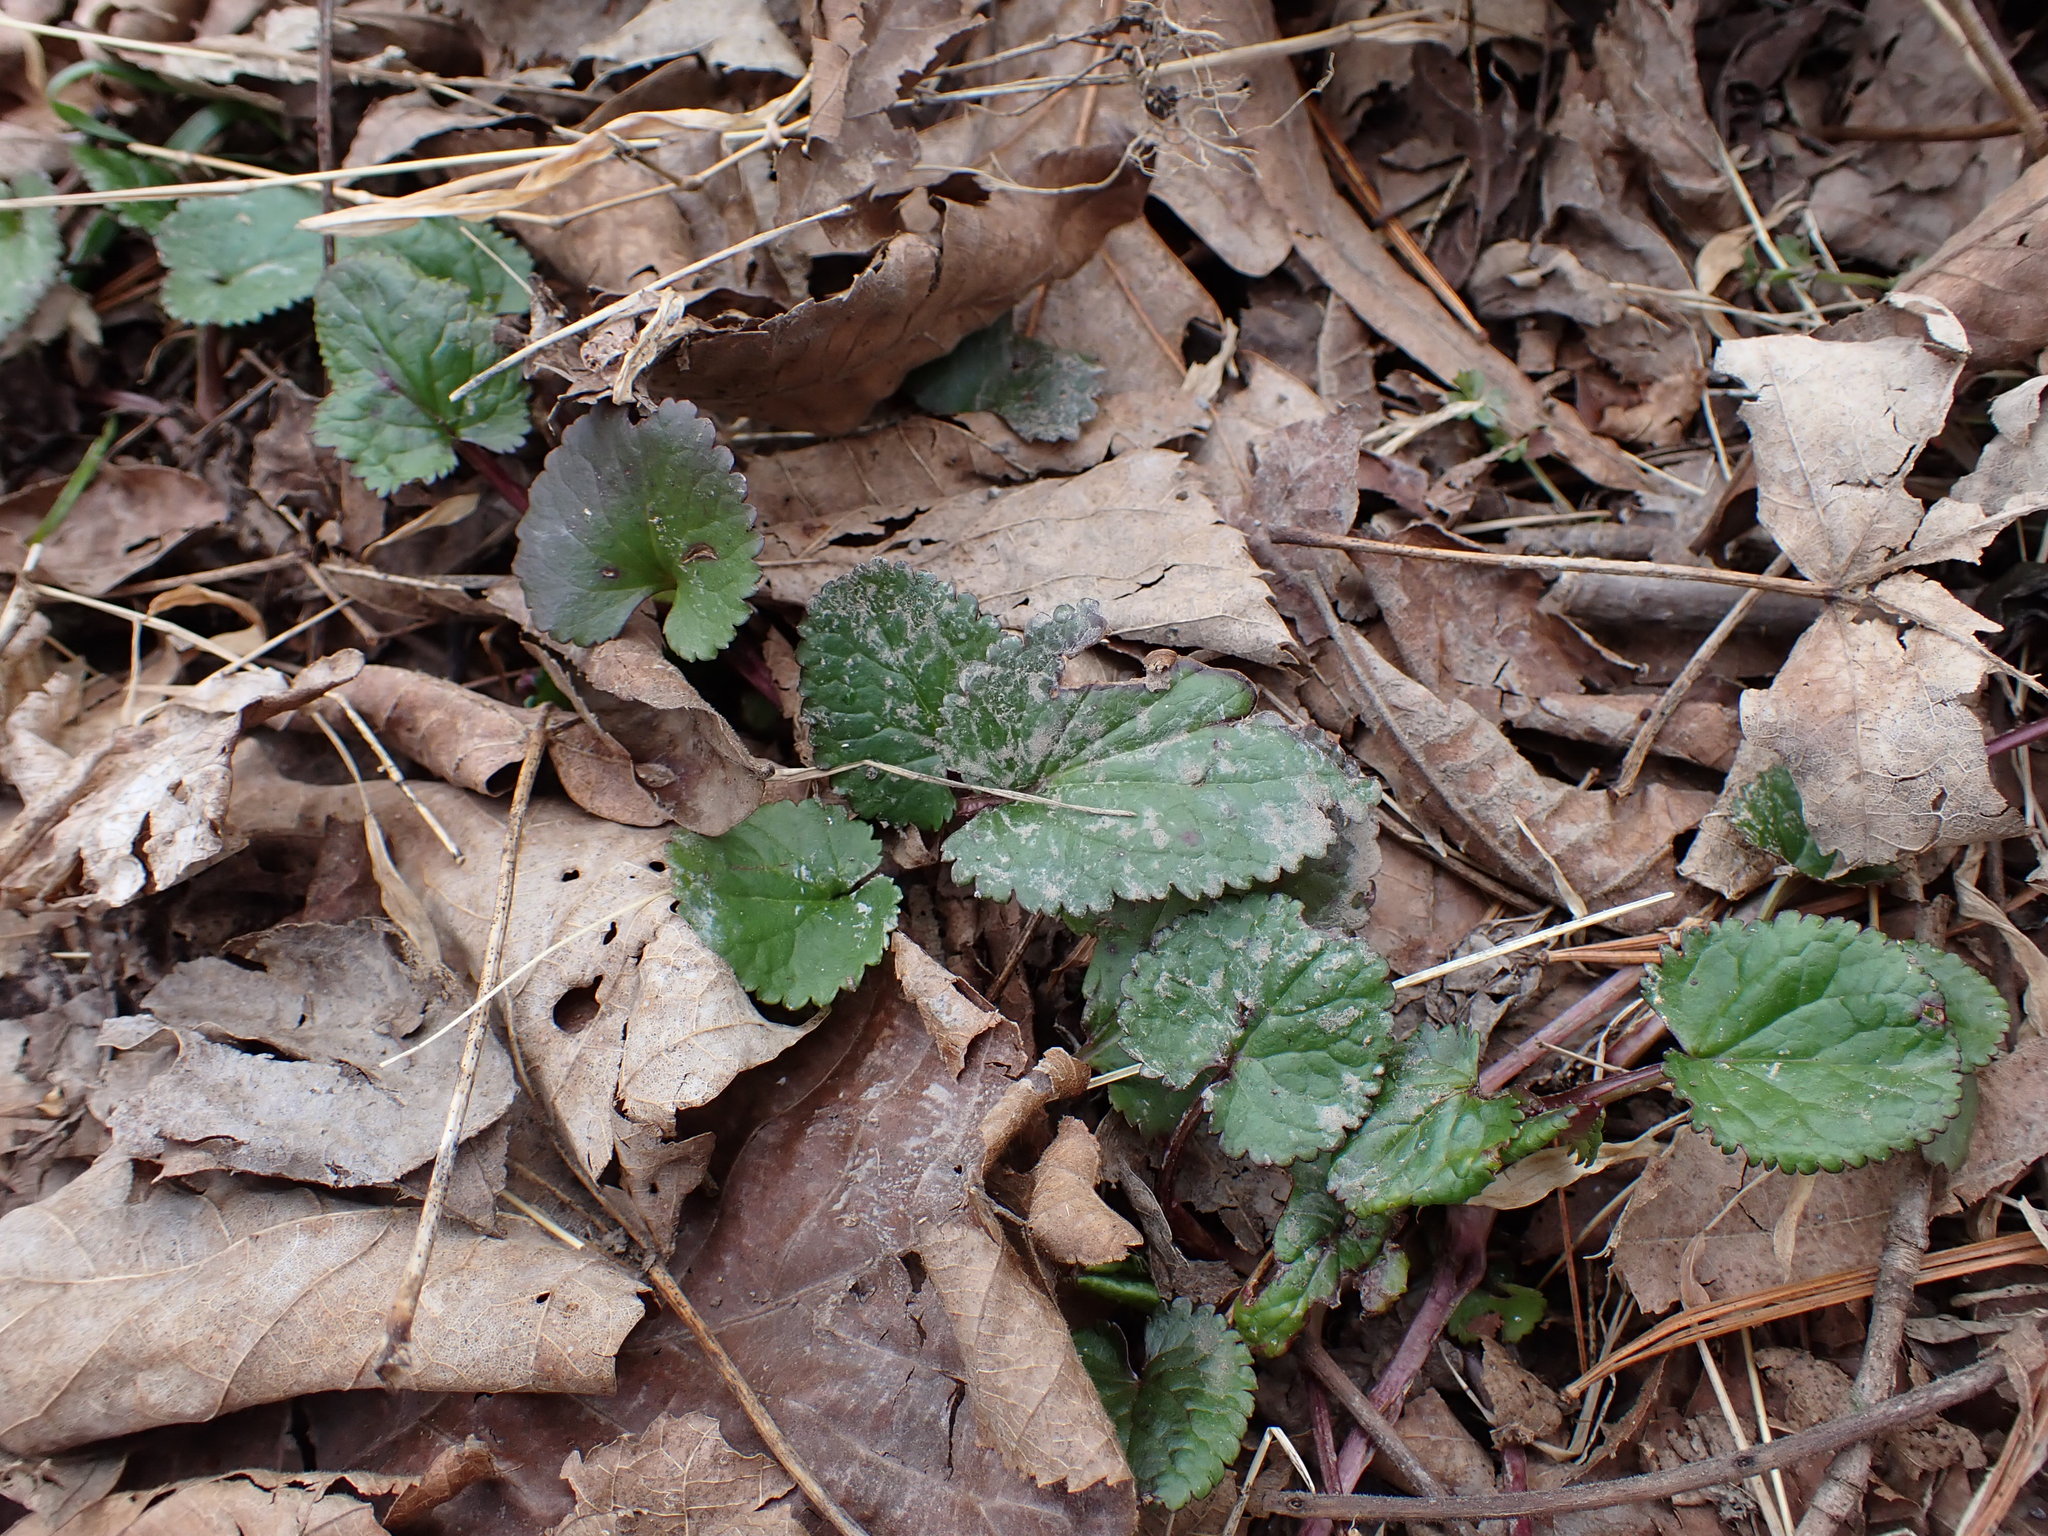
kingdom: Plantae
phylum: Tracheophyta
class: Magnoliopsida
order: Asterales
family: Asteraceae
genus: Packera
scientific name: Packera aurea
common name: Golden groundsel
